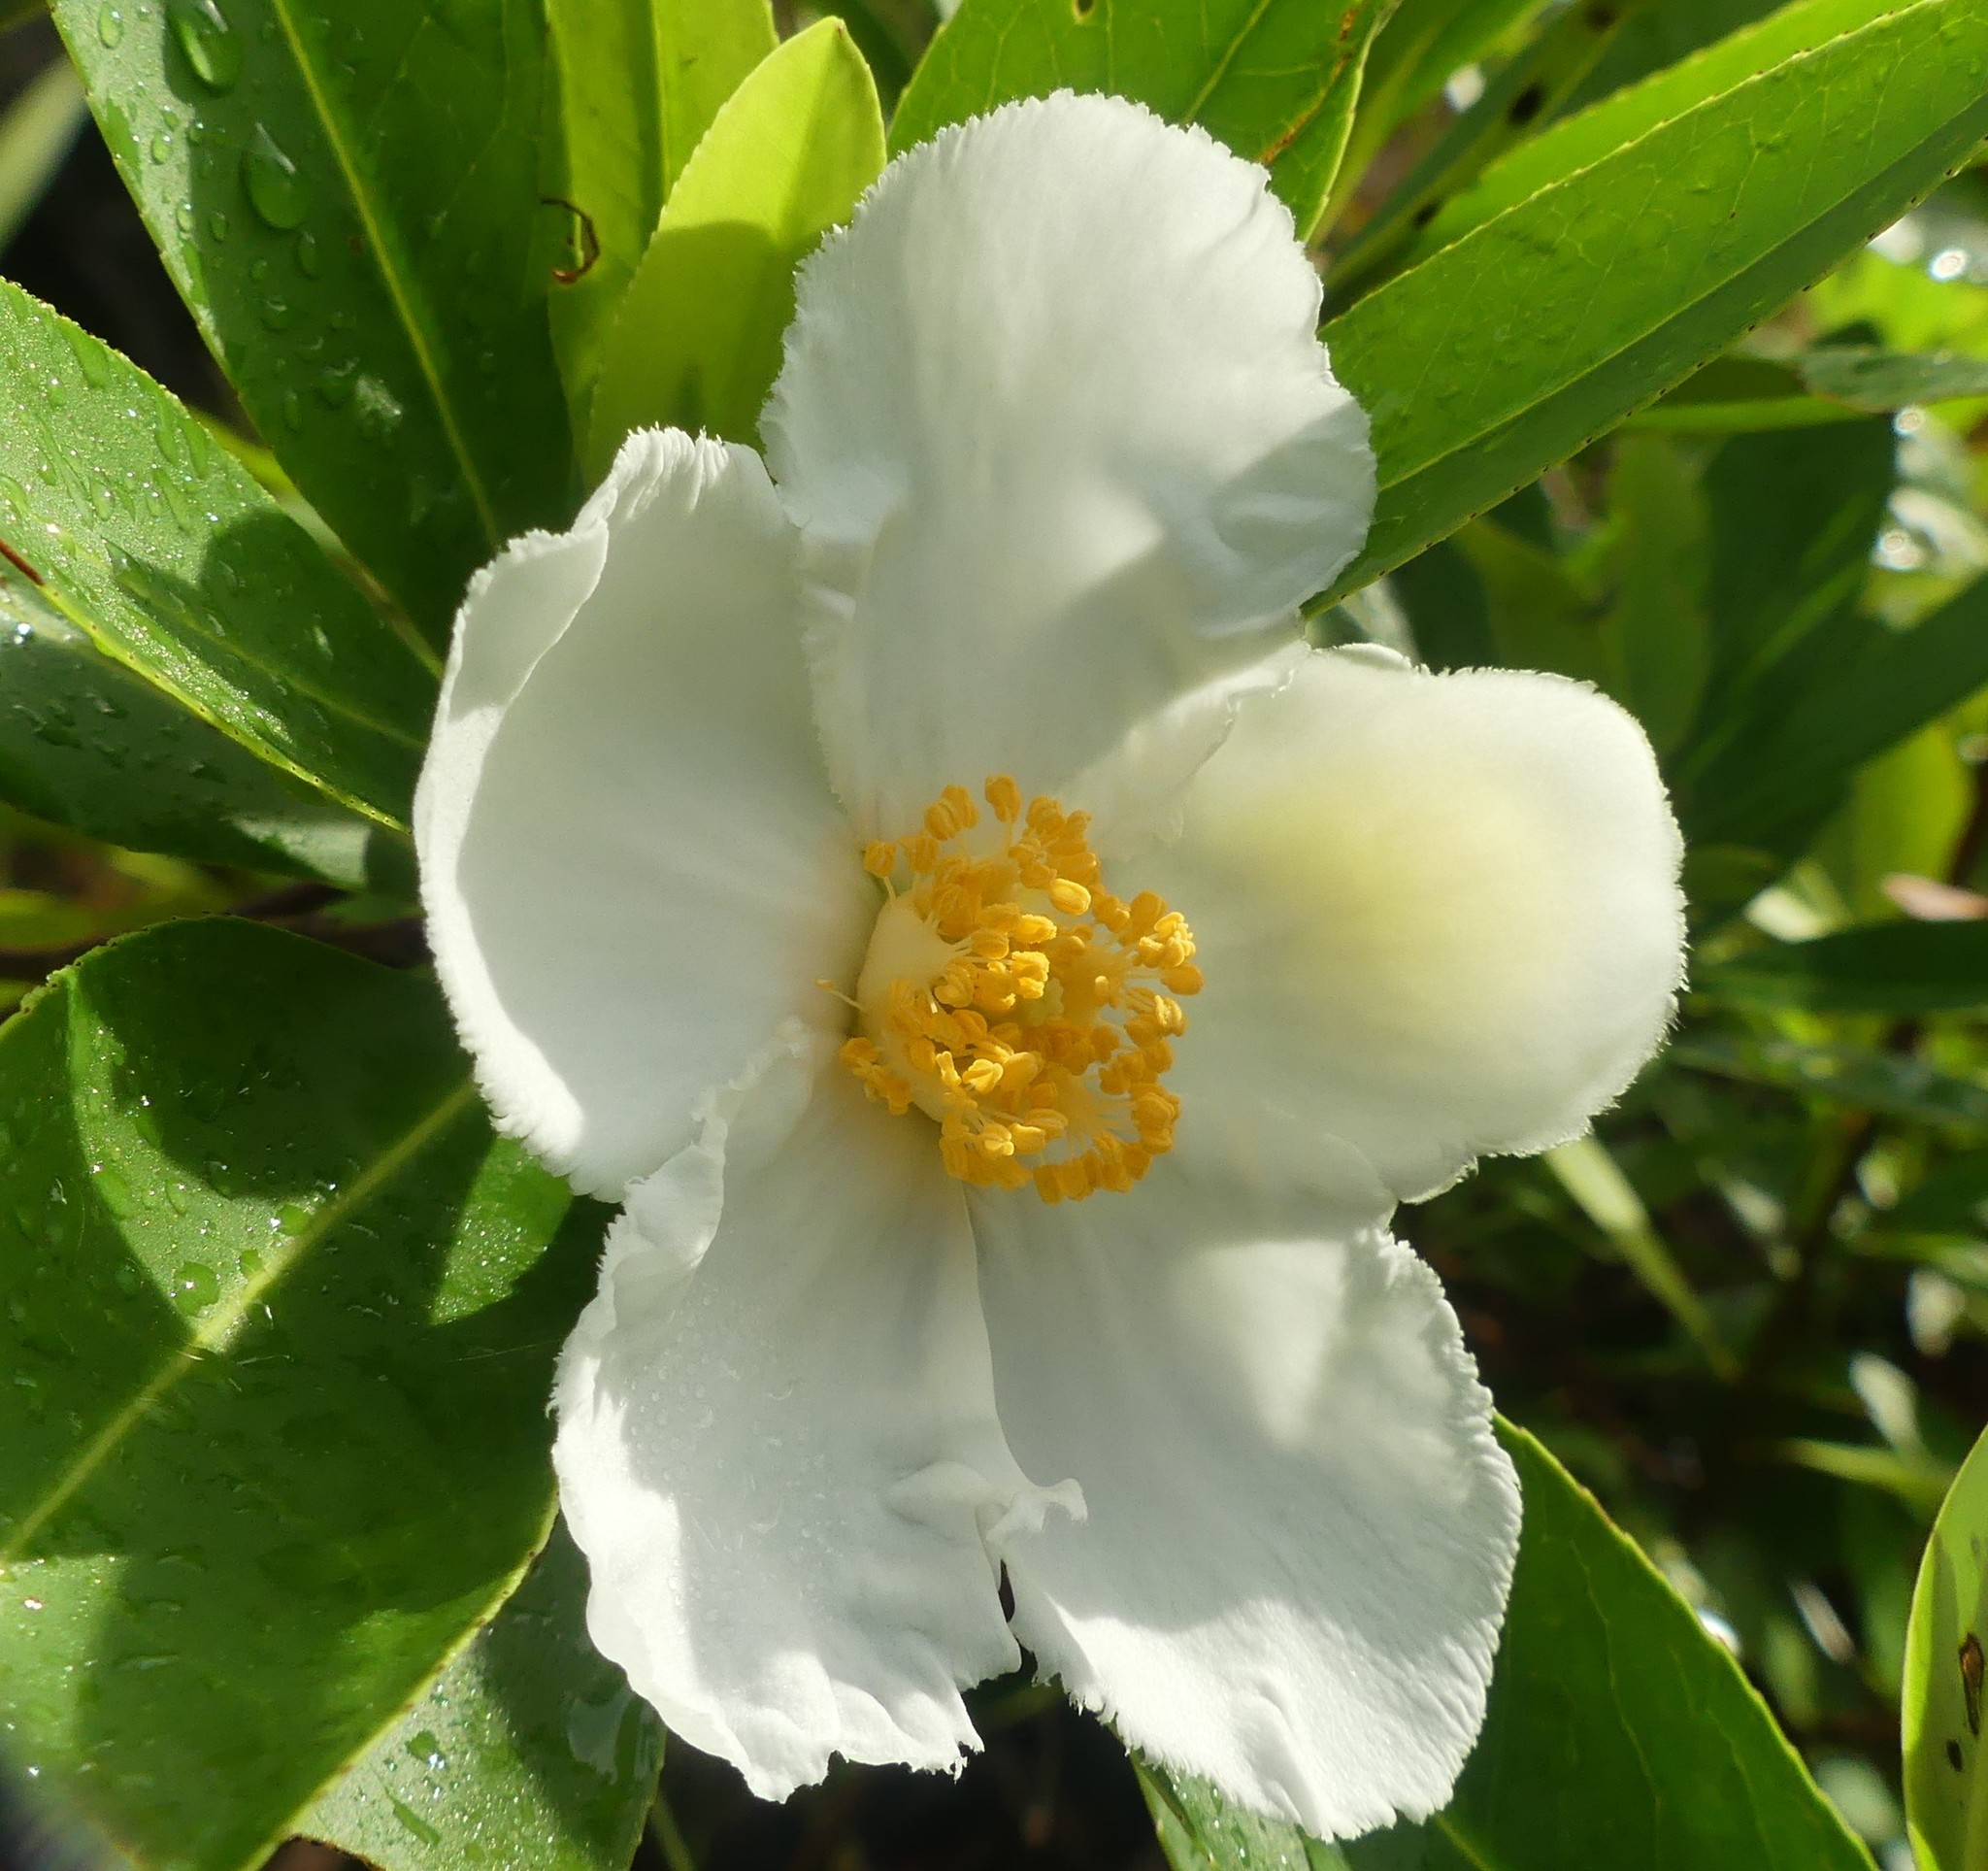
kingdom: Plantae
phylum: Tracheophyta
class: Magnoliopsida
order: Ericales
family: Theaceae
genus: Gordonia
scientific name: Gordonia lasianthus
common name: Loblolly bay
